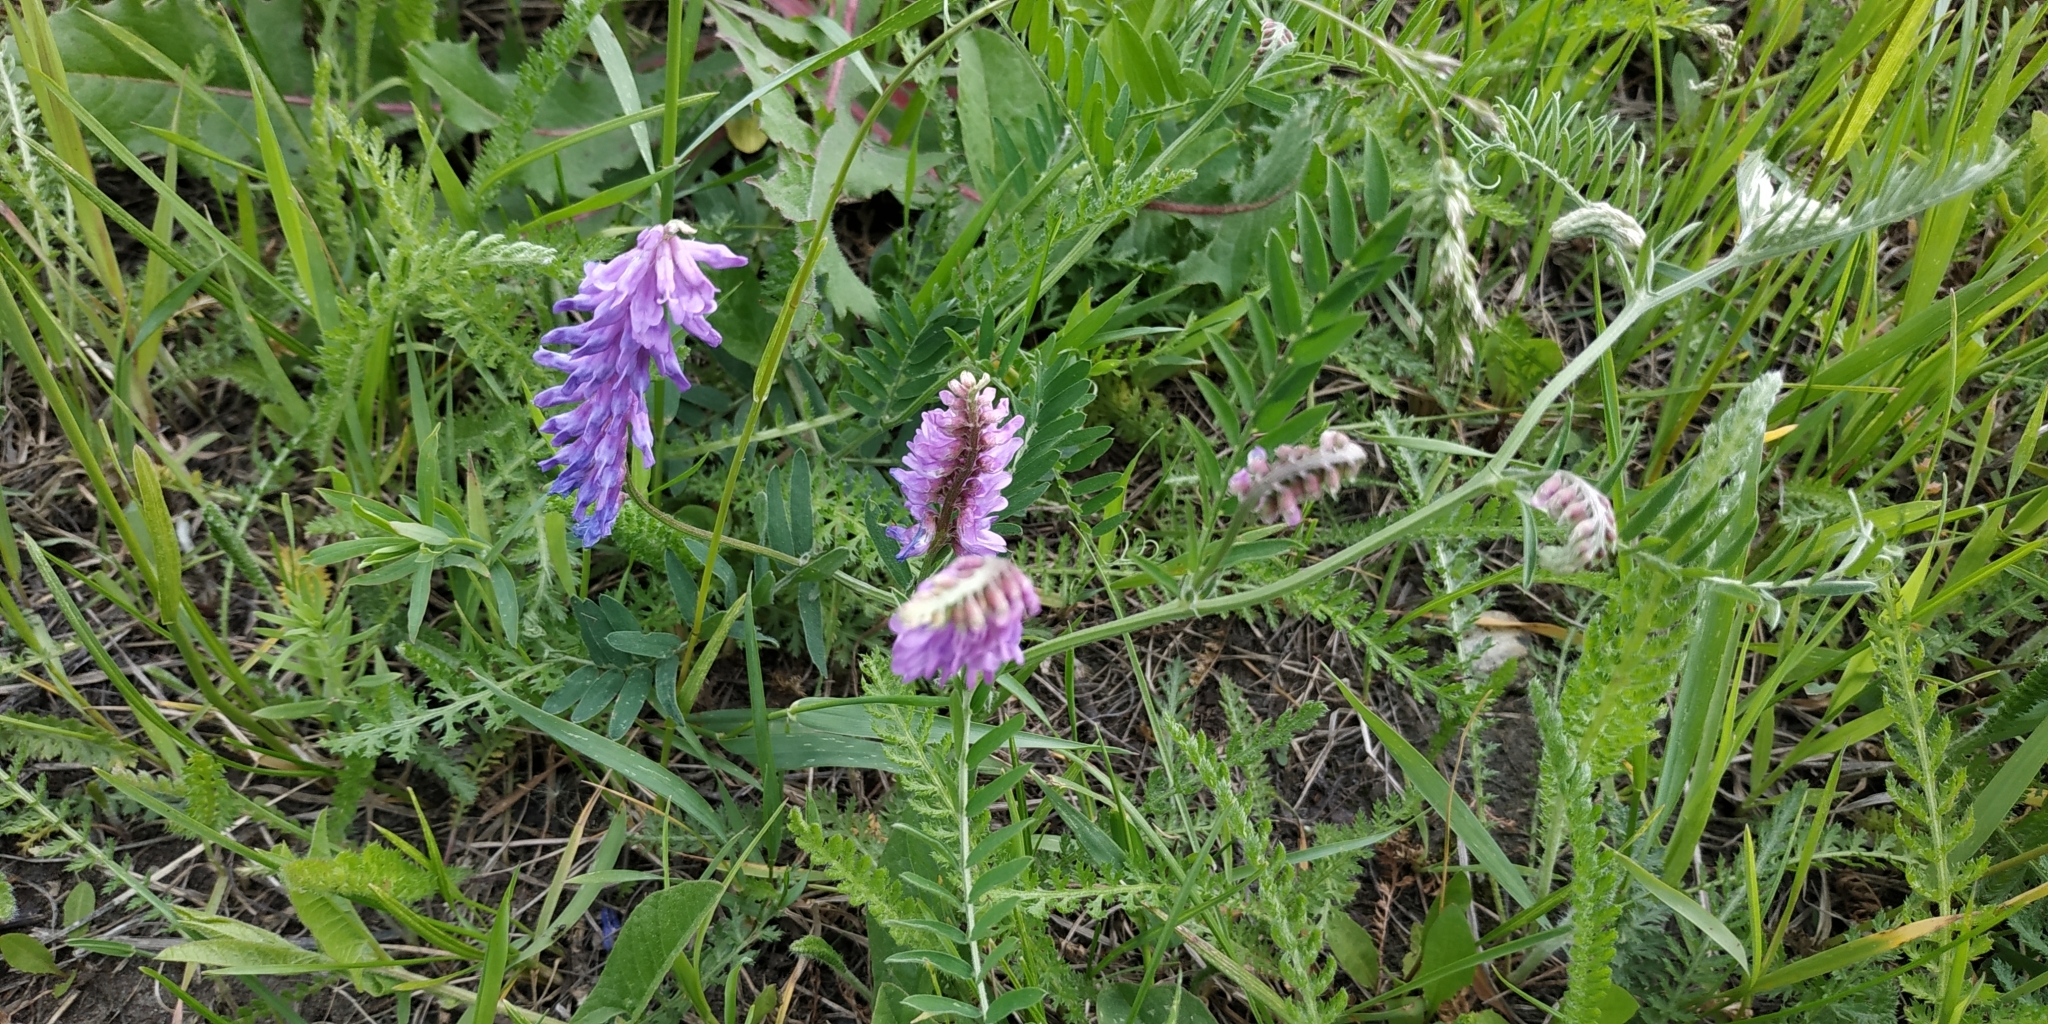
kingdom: Plantae
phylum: Tracheophyta
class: Magnoliopsida
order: Fabales
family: Fabaceae
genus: Vicia
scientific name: Vicia cracca
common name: Bird vetch
